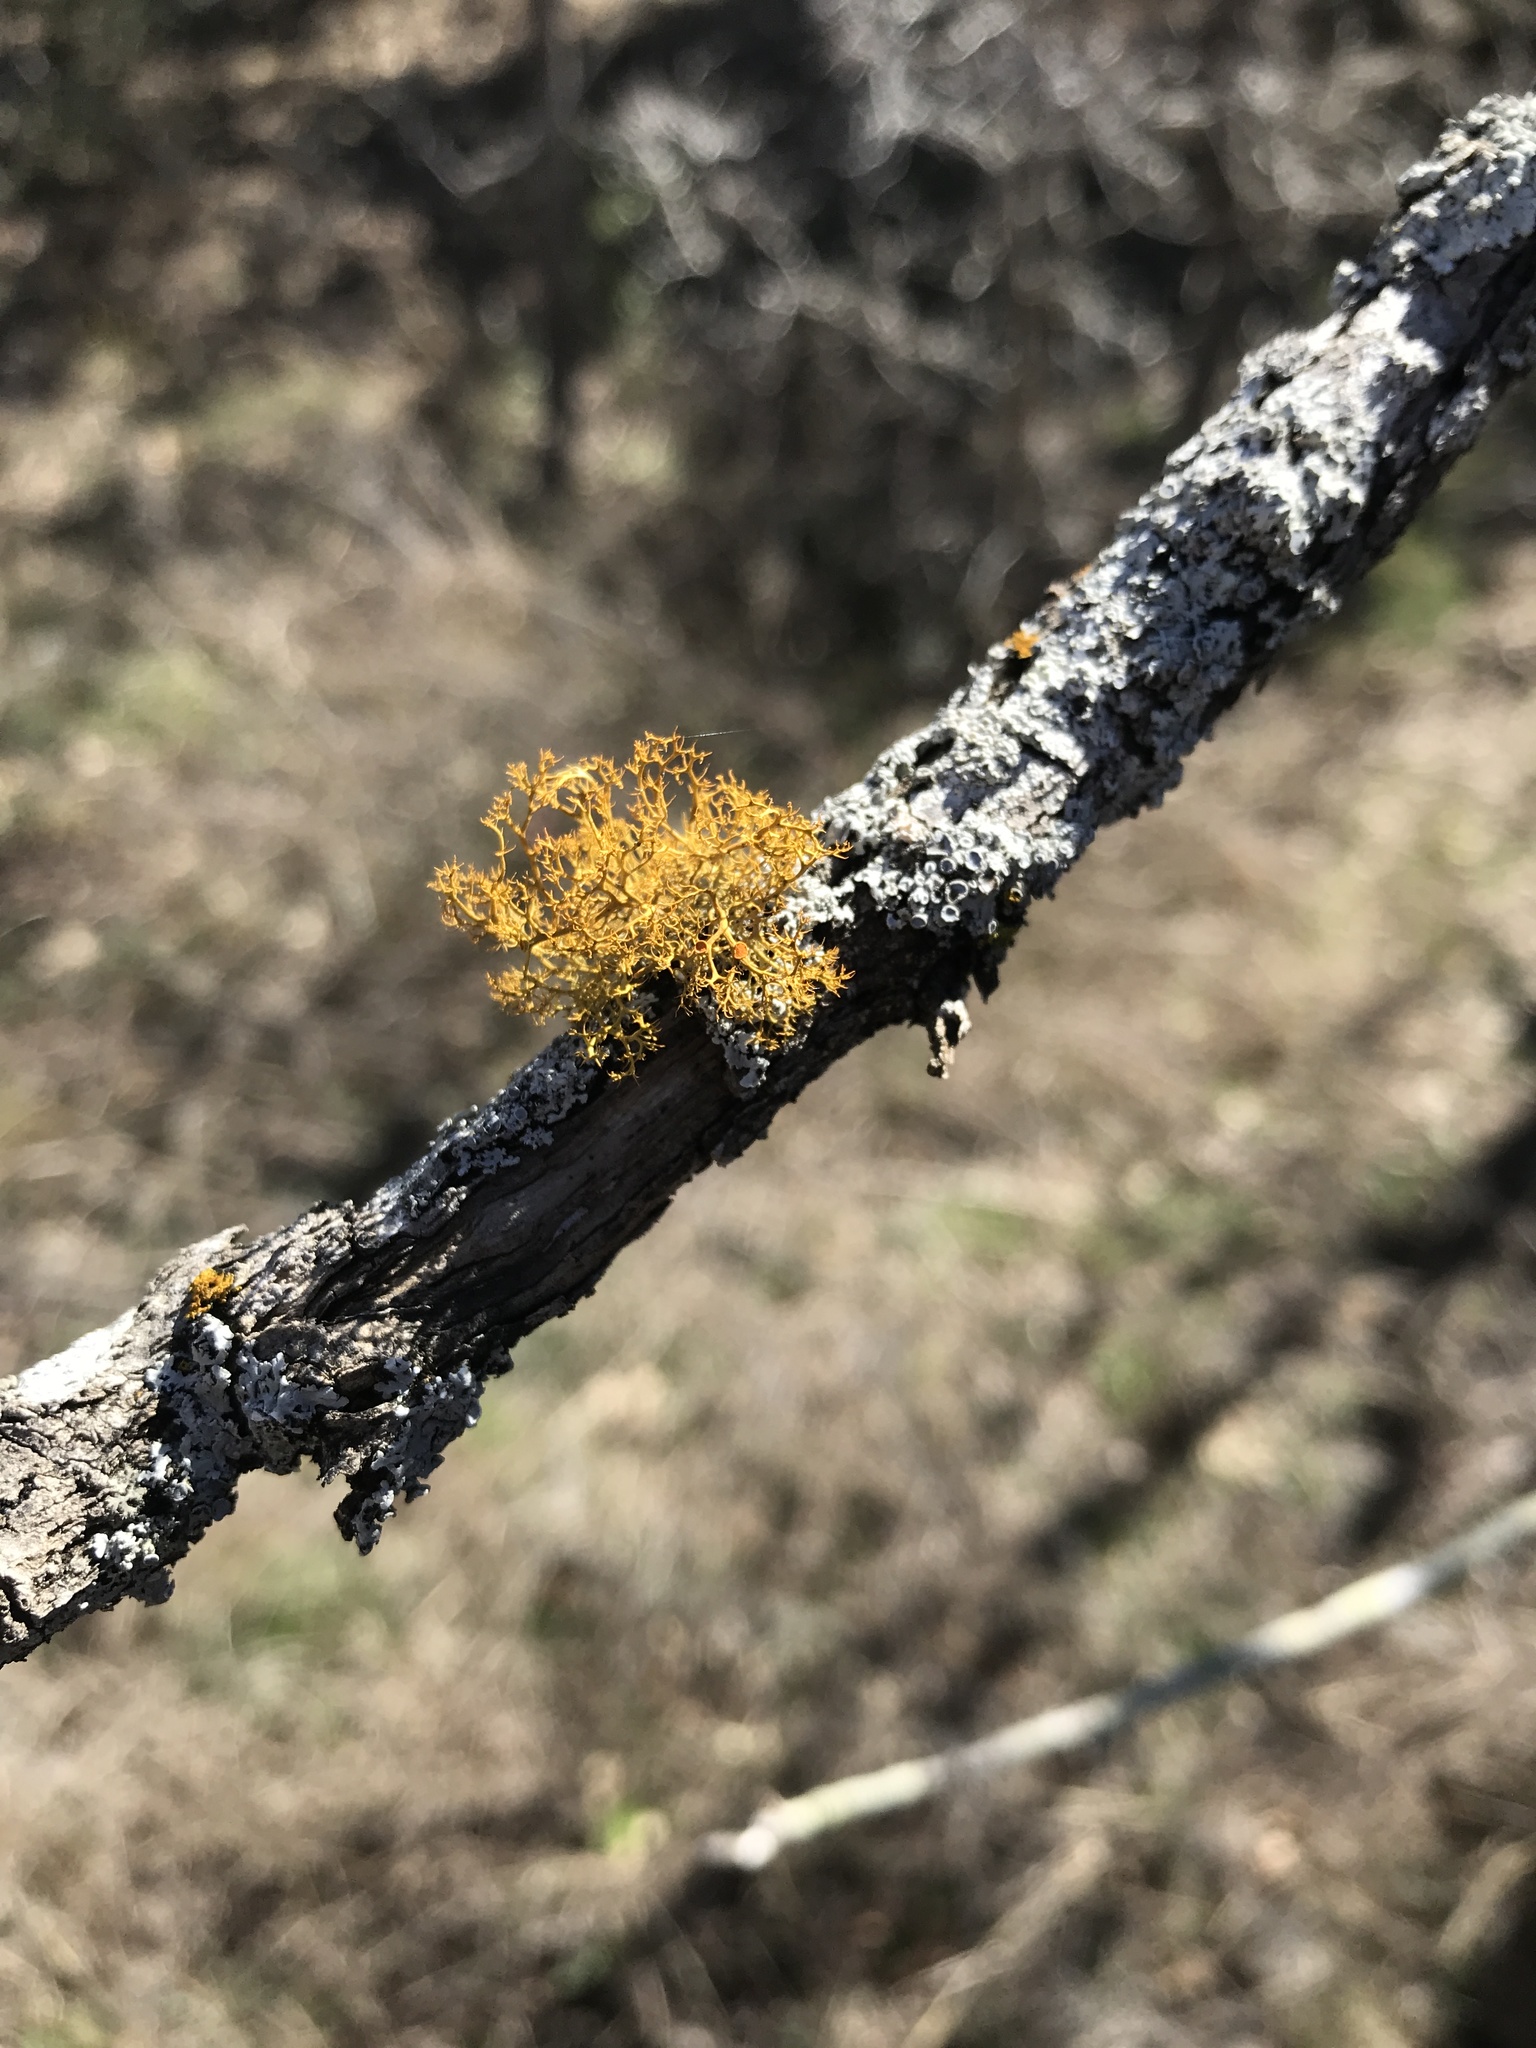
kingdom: Fungi
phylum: Ascomycota
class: Lecanoromycetes
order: Teloschistales
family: Teloschistaceae
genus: Teloschistes
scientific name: Teloschistes exilis
